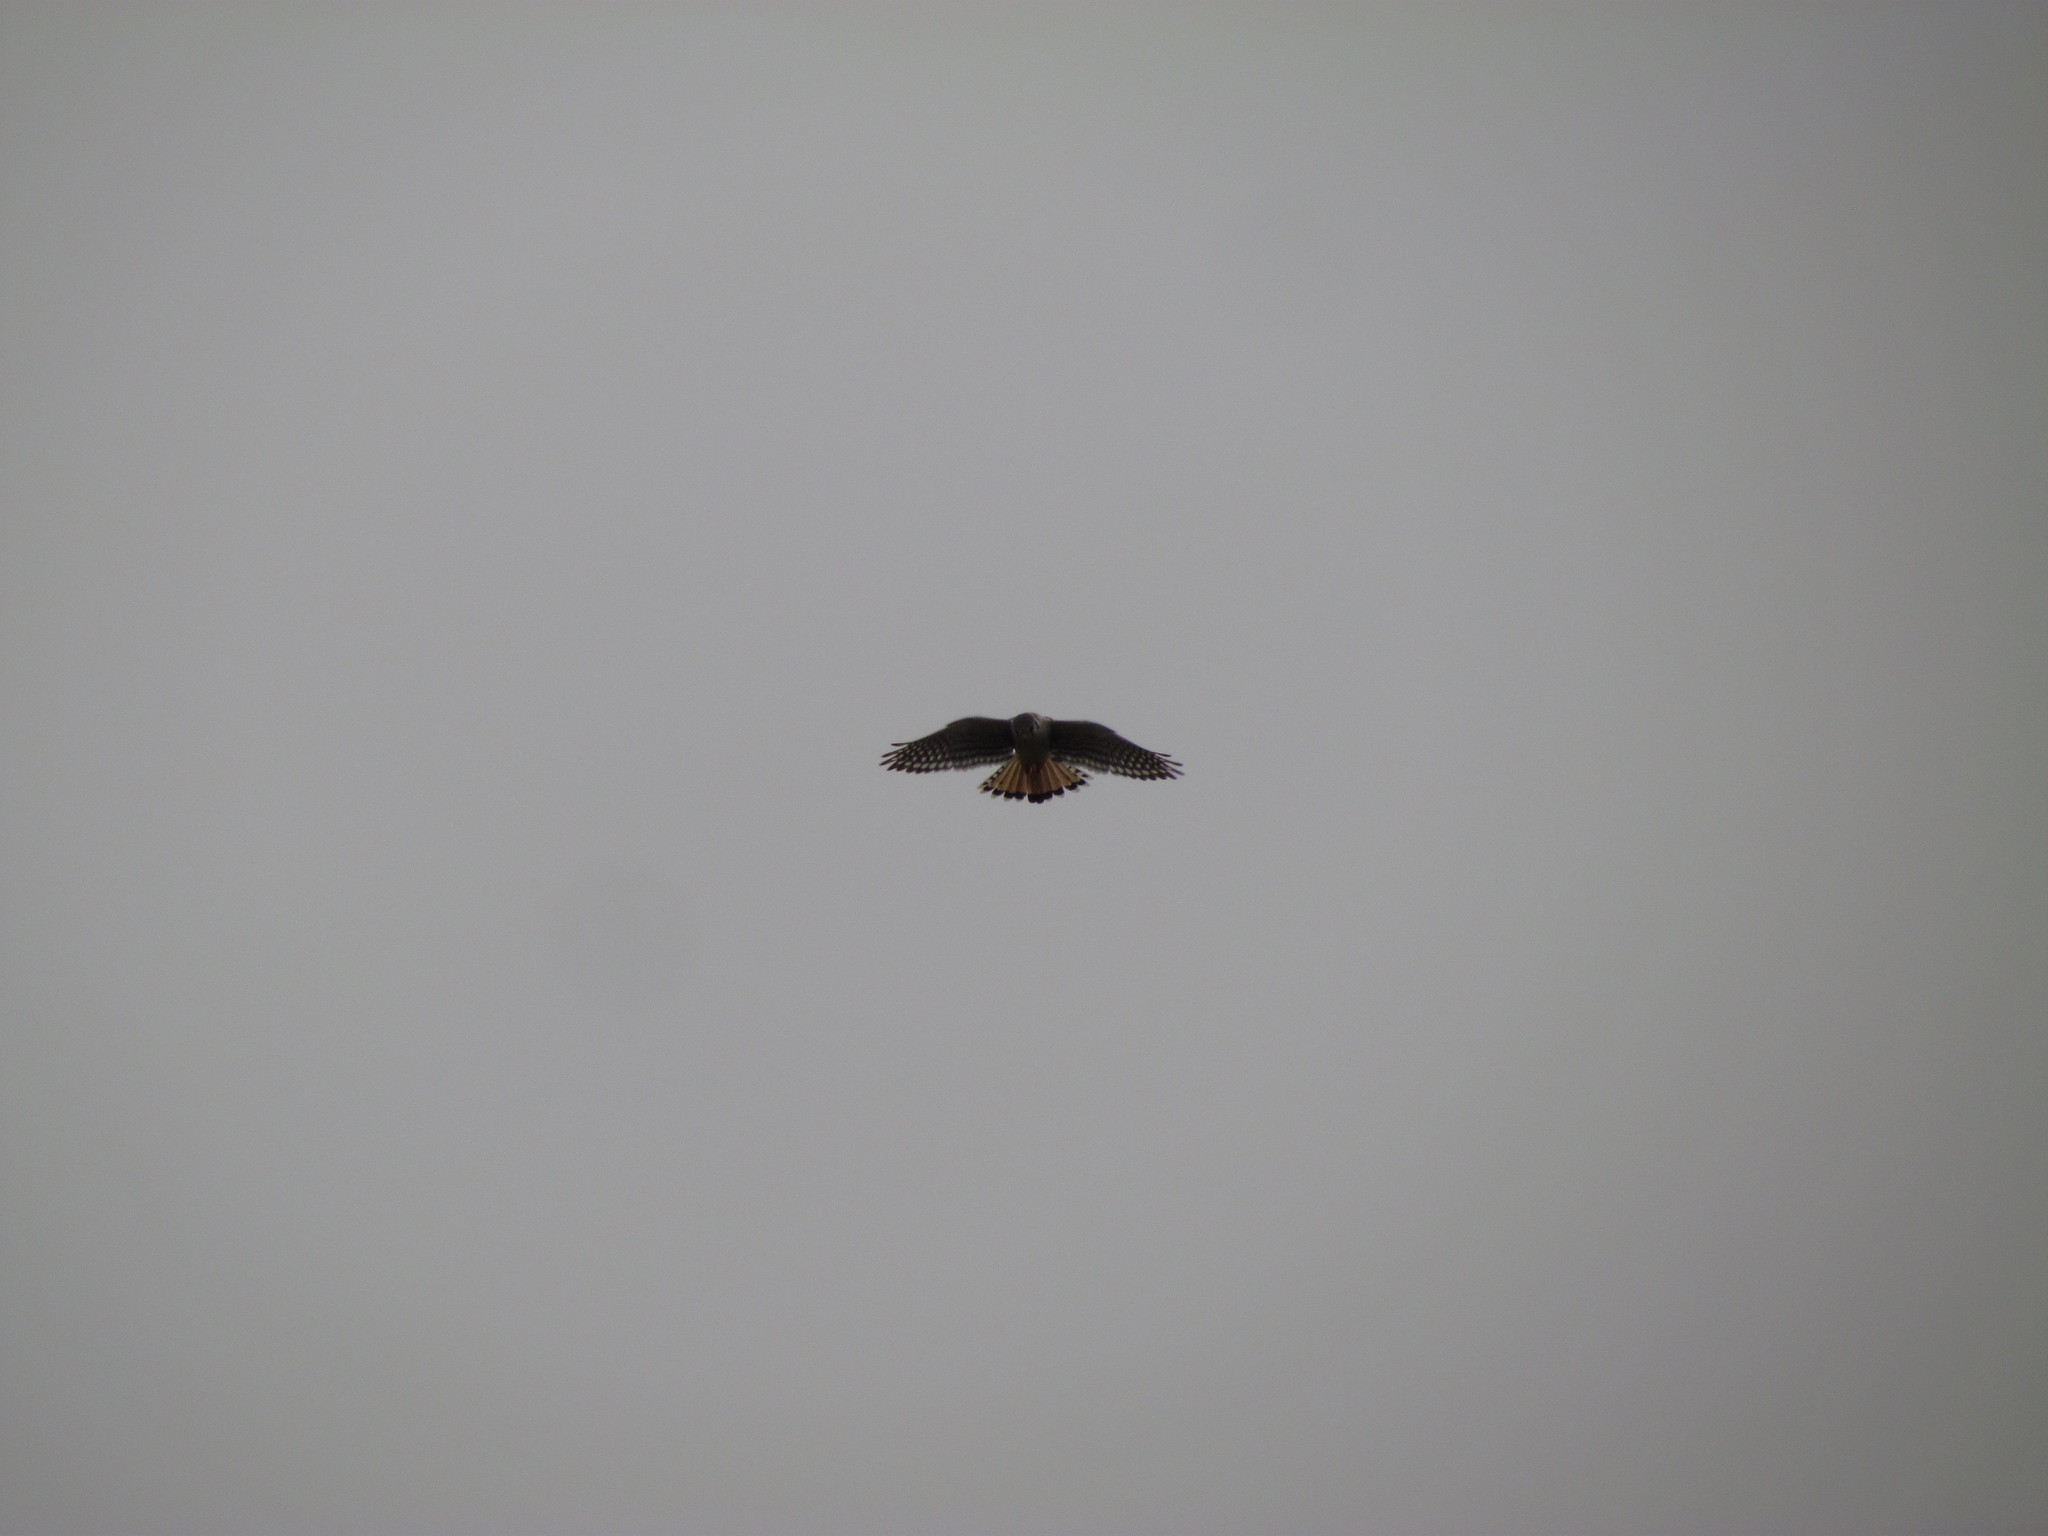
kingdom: Animalia
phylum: Chordata
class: Aves
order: Falconiformes
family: Falconidae
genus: Falco
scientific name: Falco sparverius
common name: American kestrel
